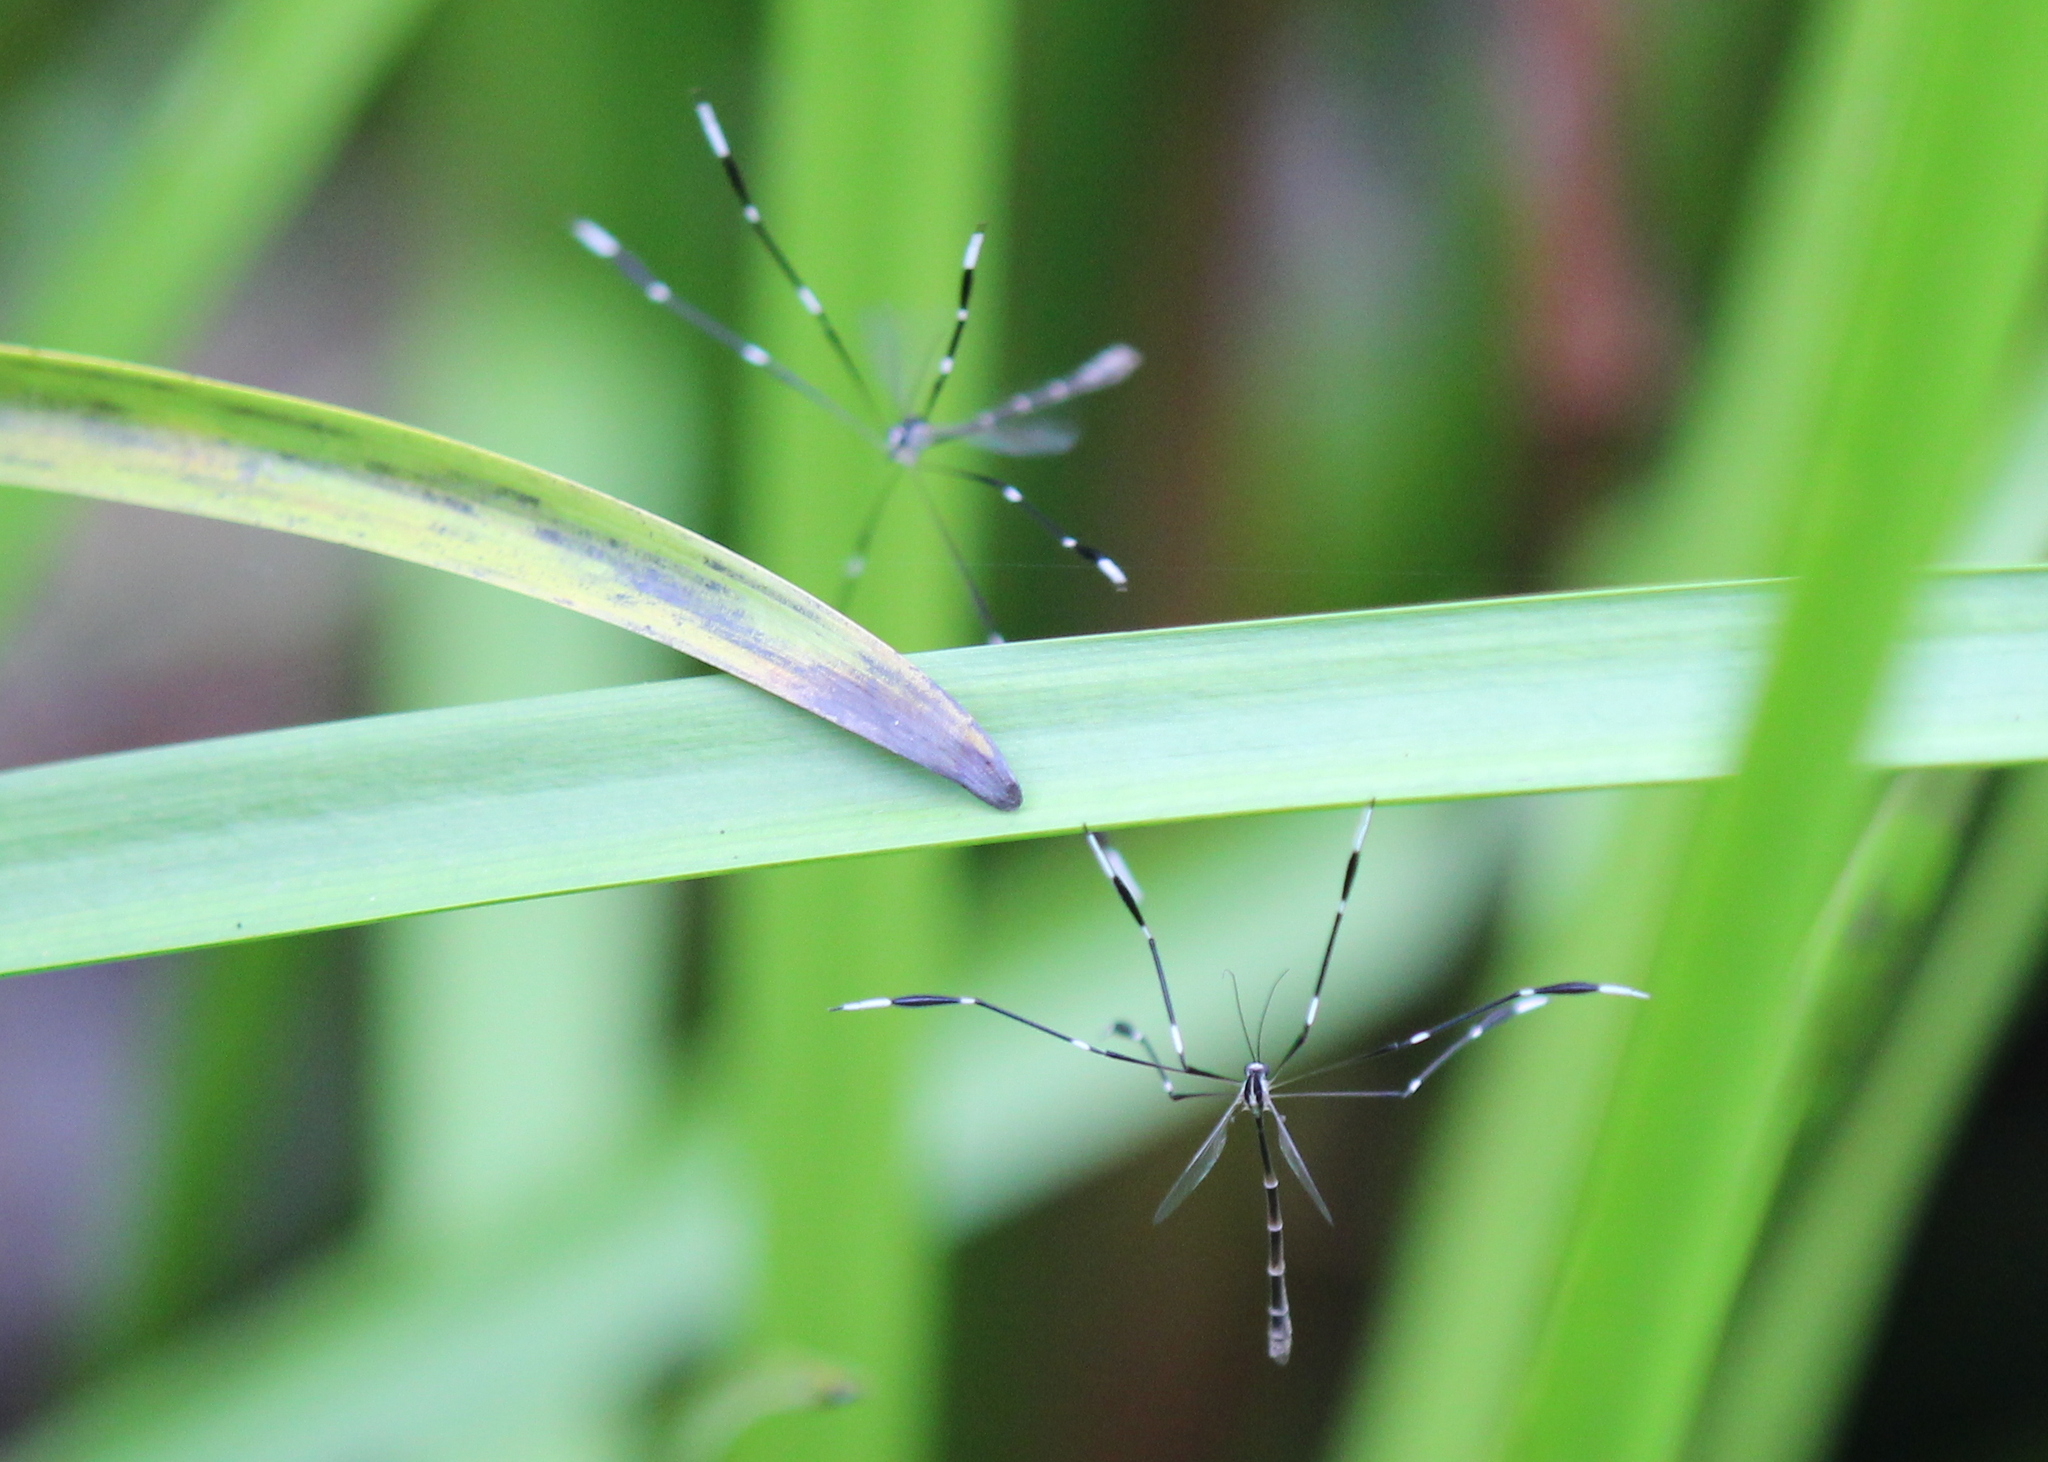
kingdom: Animalia
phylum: Arthropoda
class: Insecta
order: Diptera
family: Ptychopteridae
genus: Bittacomorpha
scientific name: Bittacomorpha clavipes
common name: Eastern phantom crane fly
